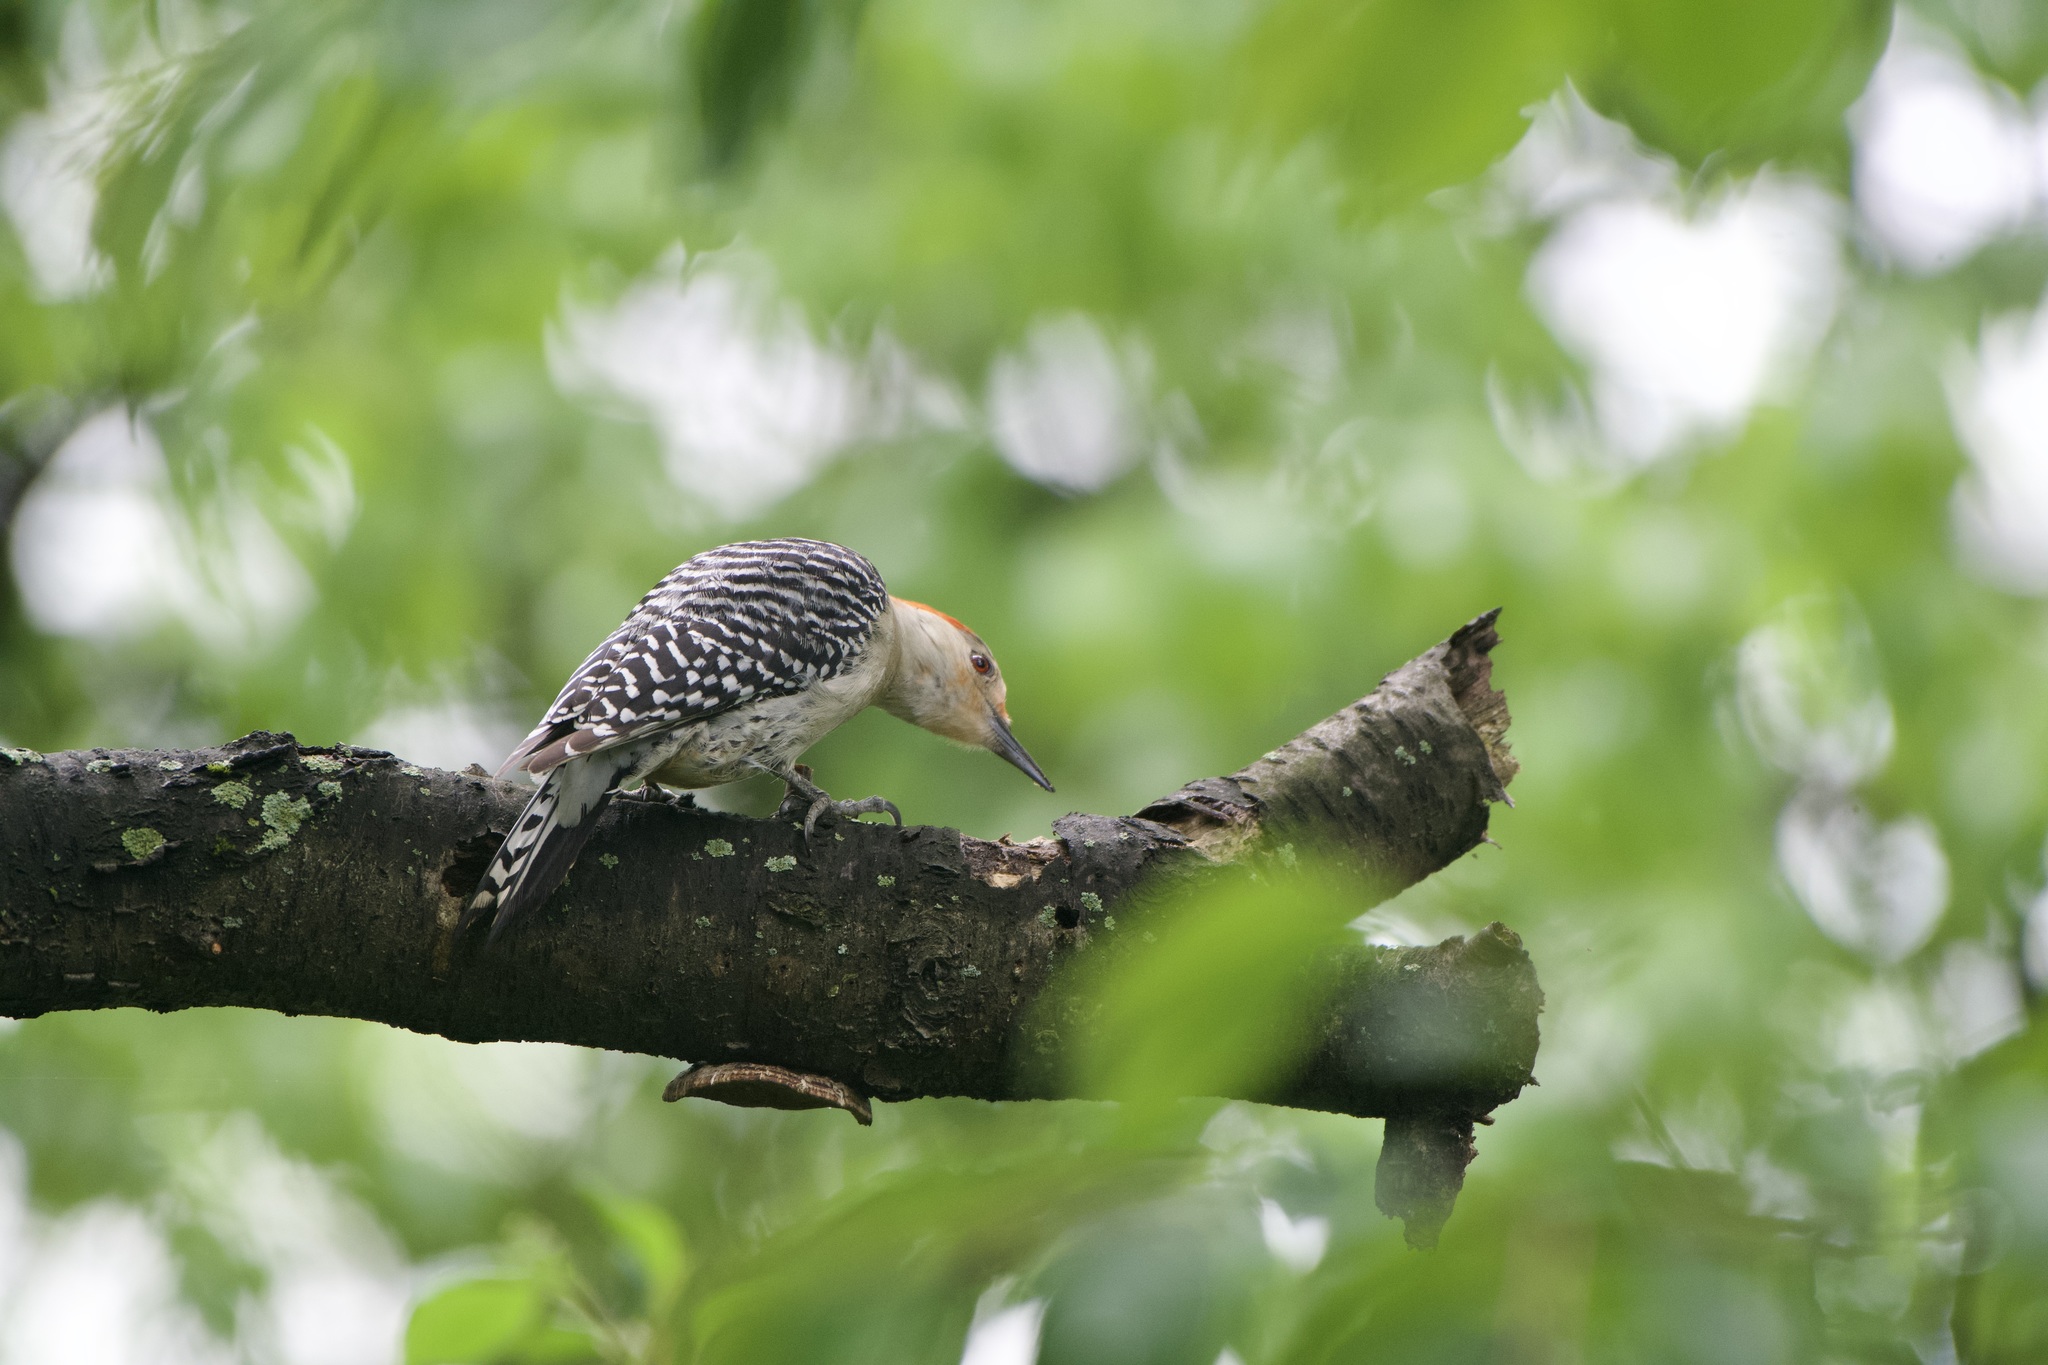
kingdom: Animalia
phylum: Chordata
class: Aves
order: Piciformes
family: Picidae
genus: Melanerpes
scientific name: Melanerpes carolinus
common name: Red-bellied woodpecker
